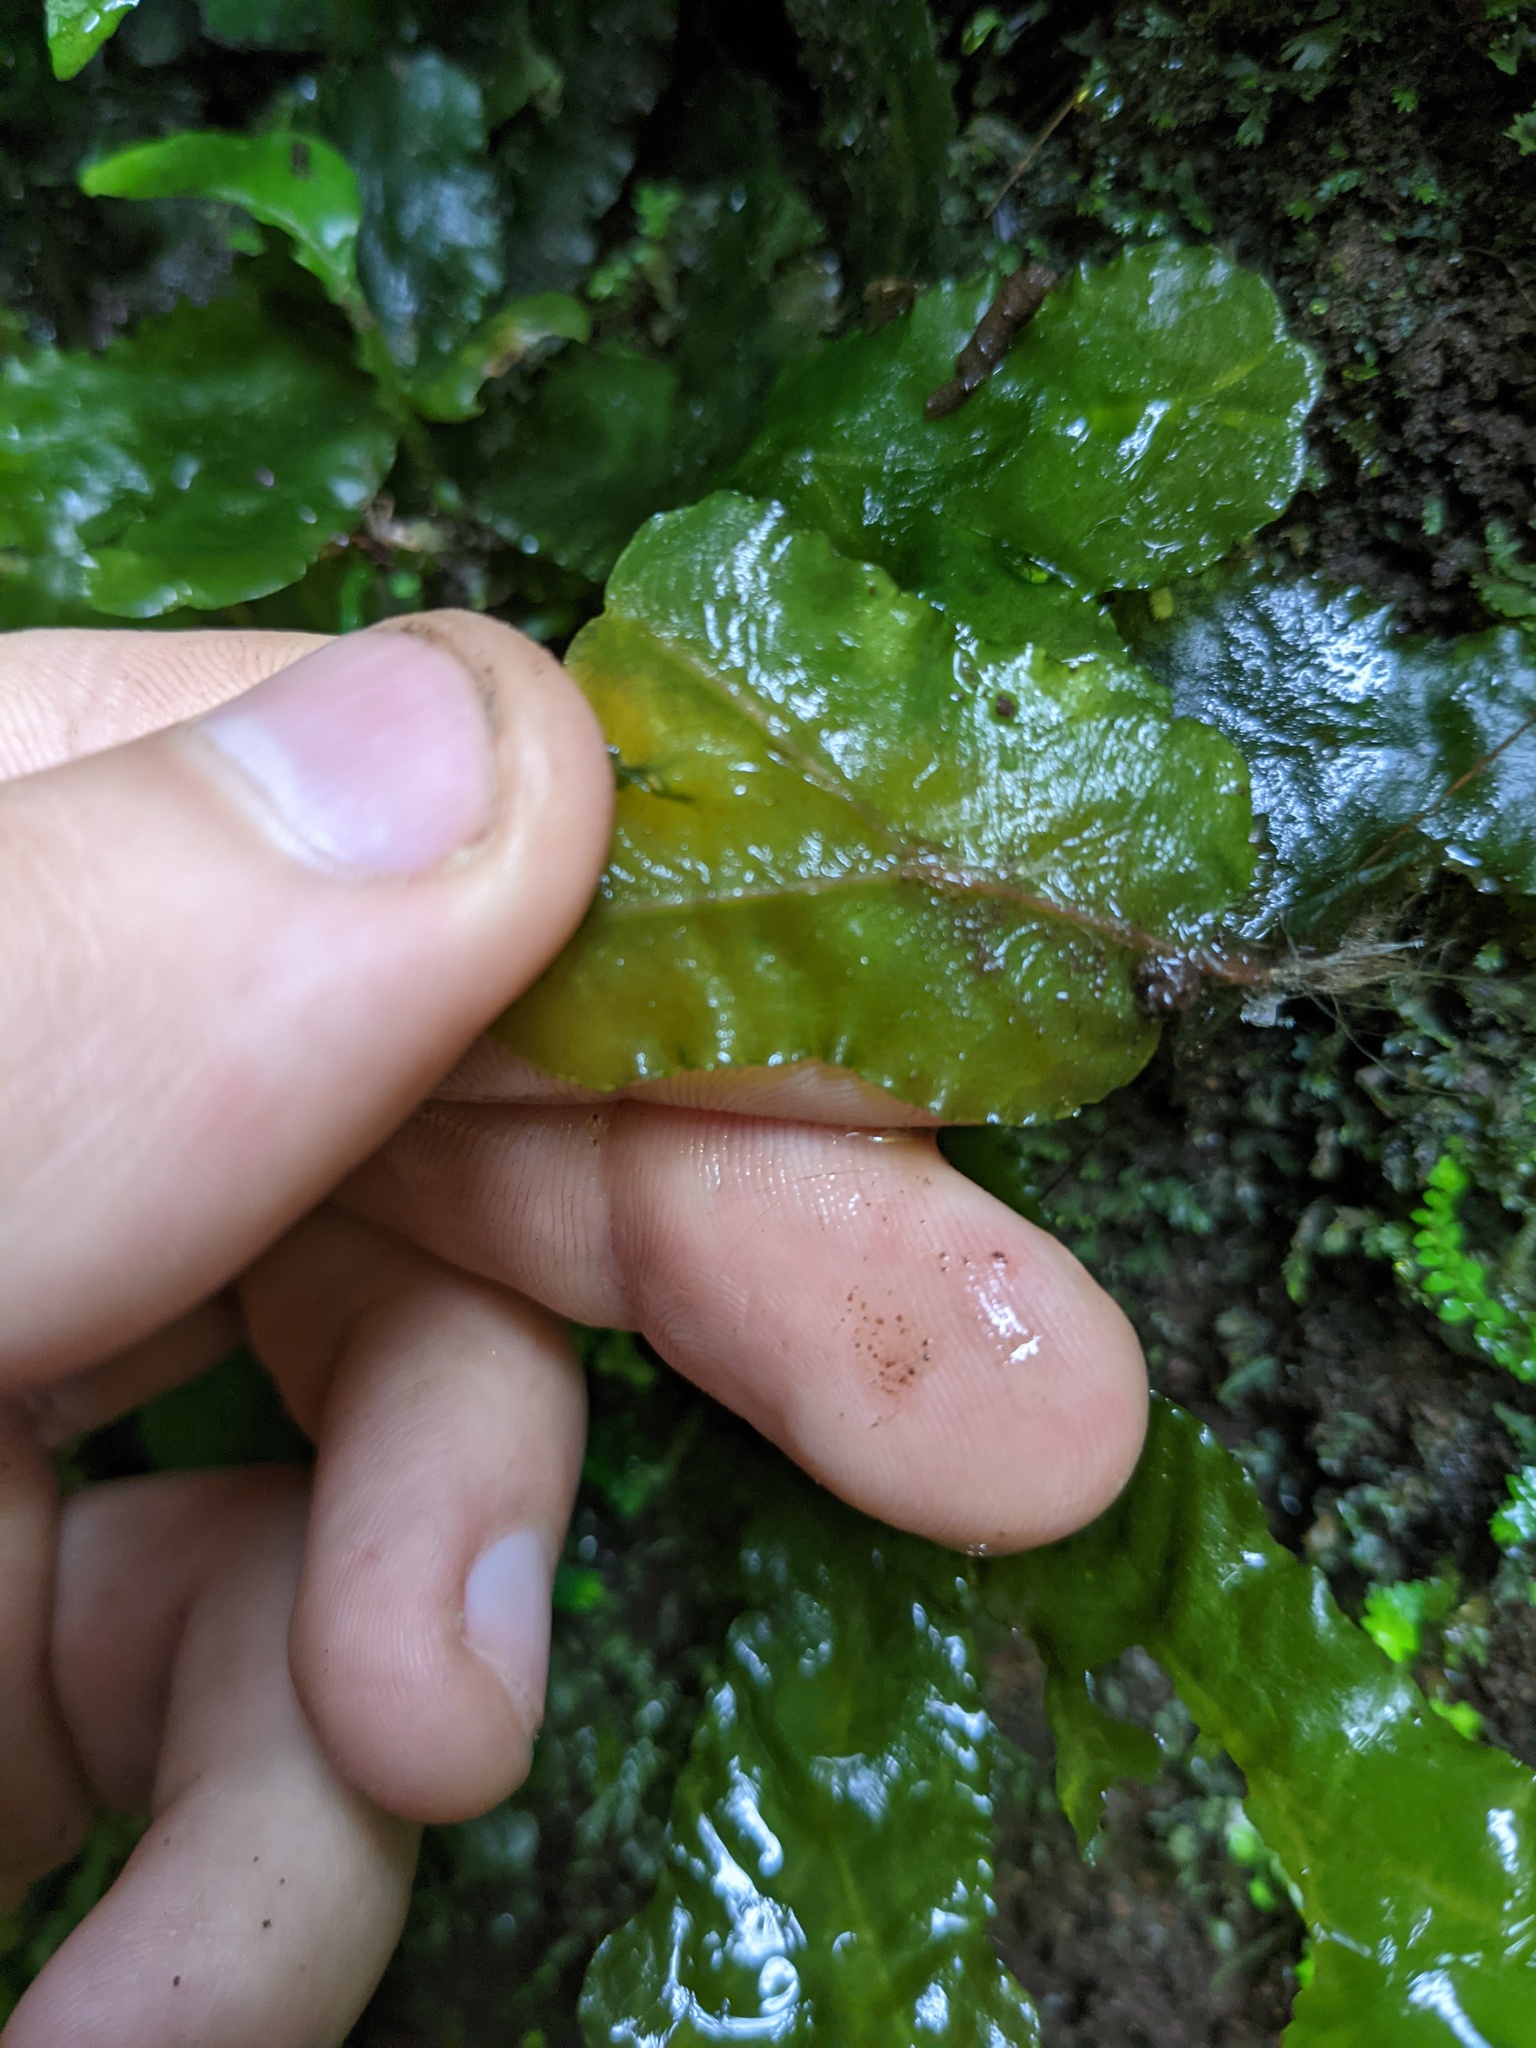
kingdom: Plantae
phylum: Marchantiophyta
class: Marchantiopsida
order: Marchantiales
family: Dumortieraceae
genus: Dumortiera
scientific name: Dumortiera hirsuta
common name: Dumortier's liverwort
